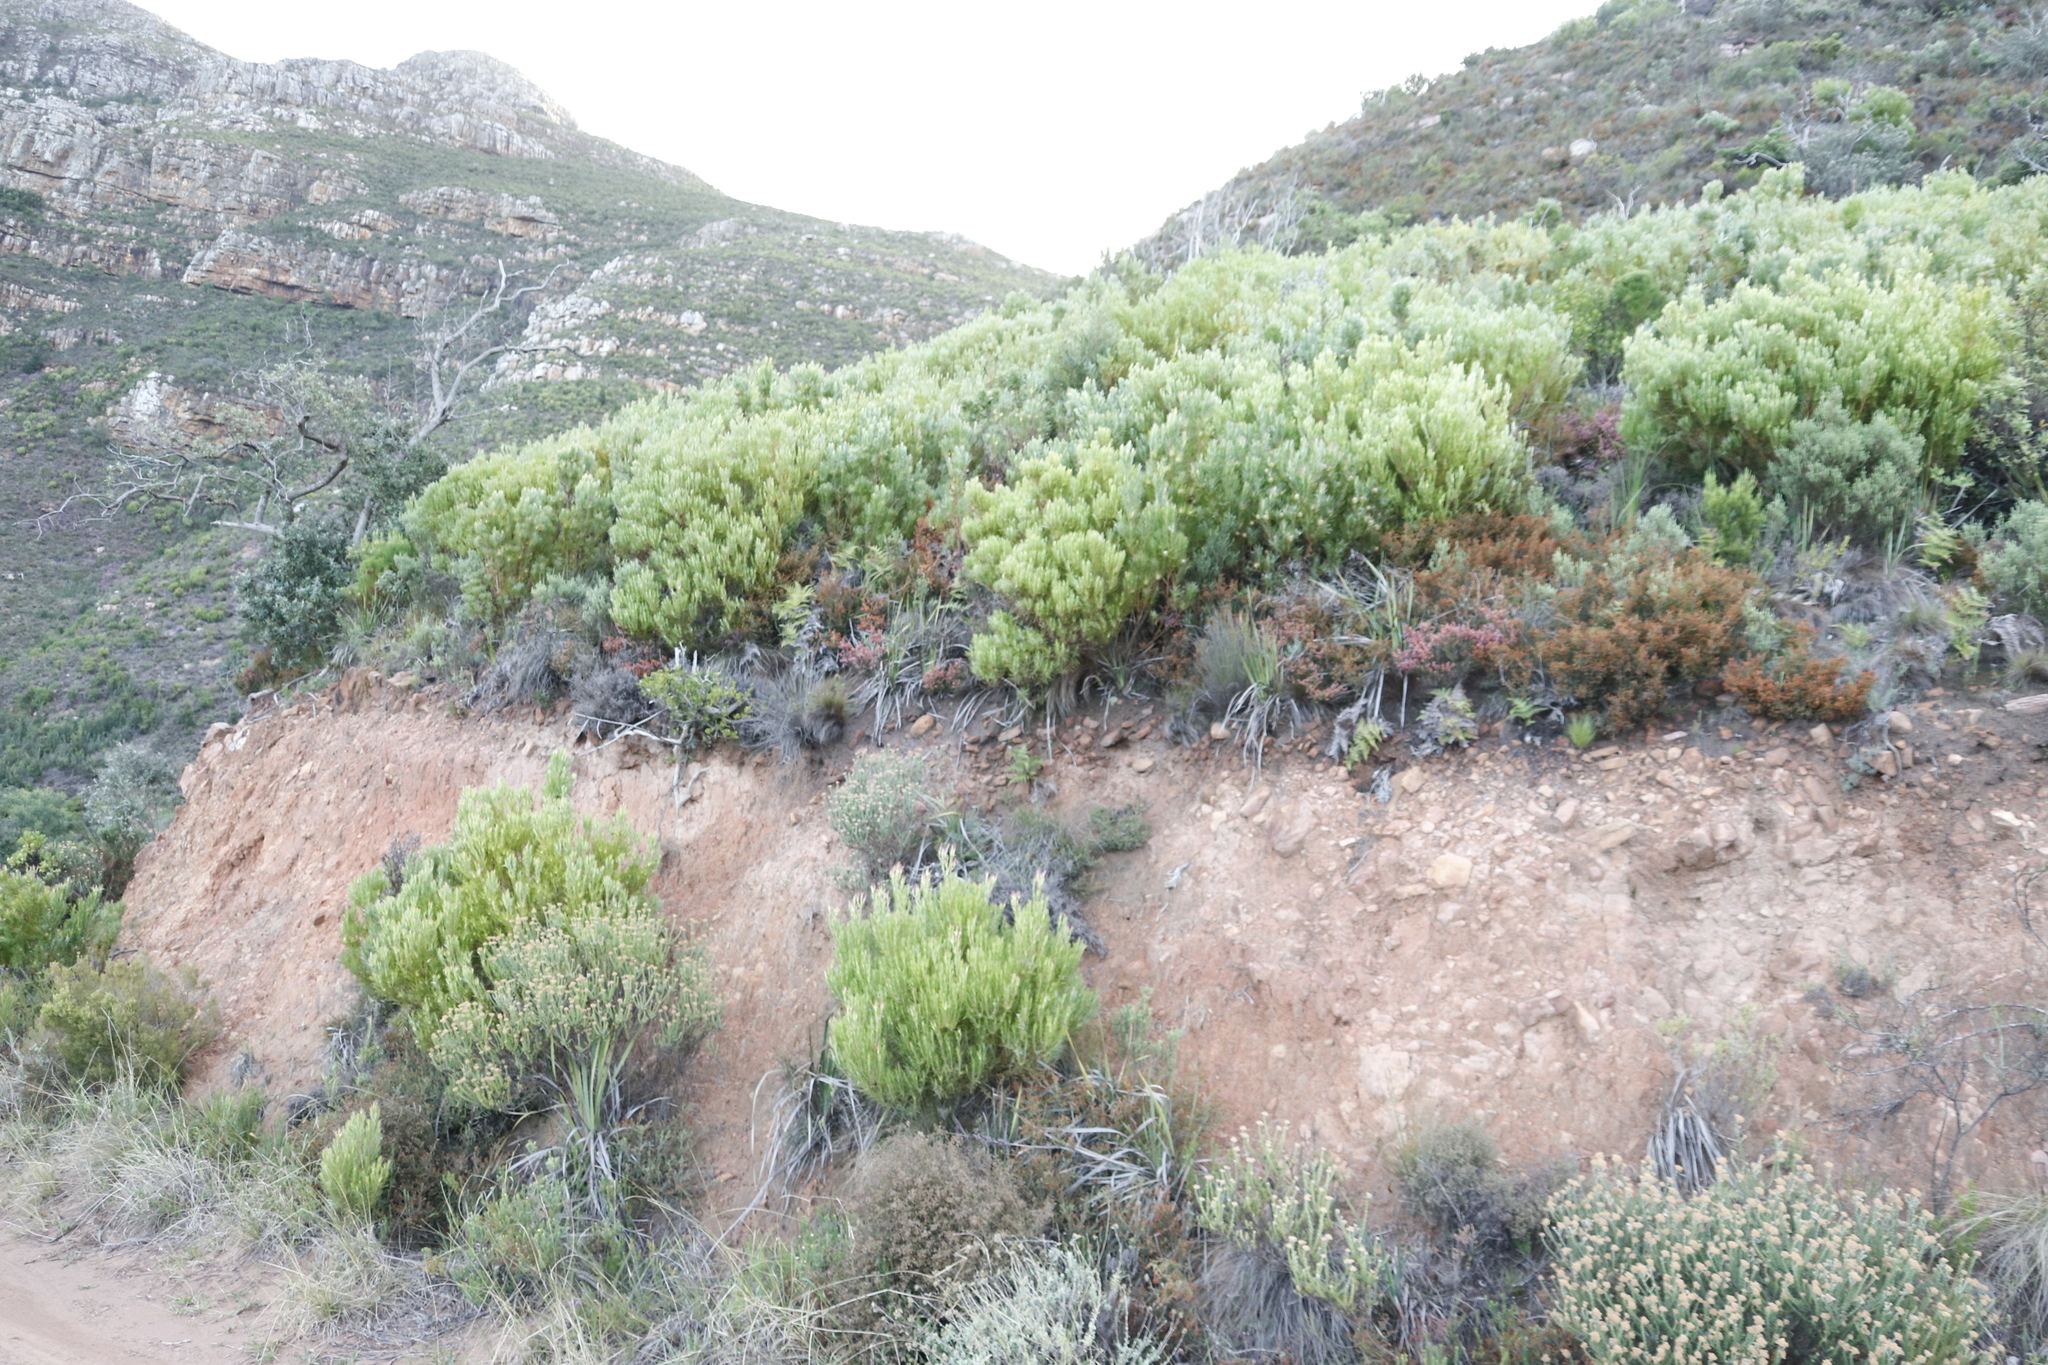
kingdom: Plantae
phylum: Tracheophyta
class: Magnoliopsida
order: Proteales
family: Proteaceae
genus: Leucadendron
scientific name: Leucadendron xanthoconus
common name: Sickle-leaf conebush
